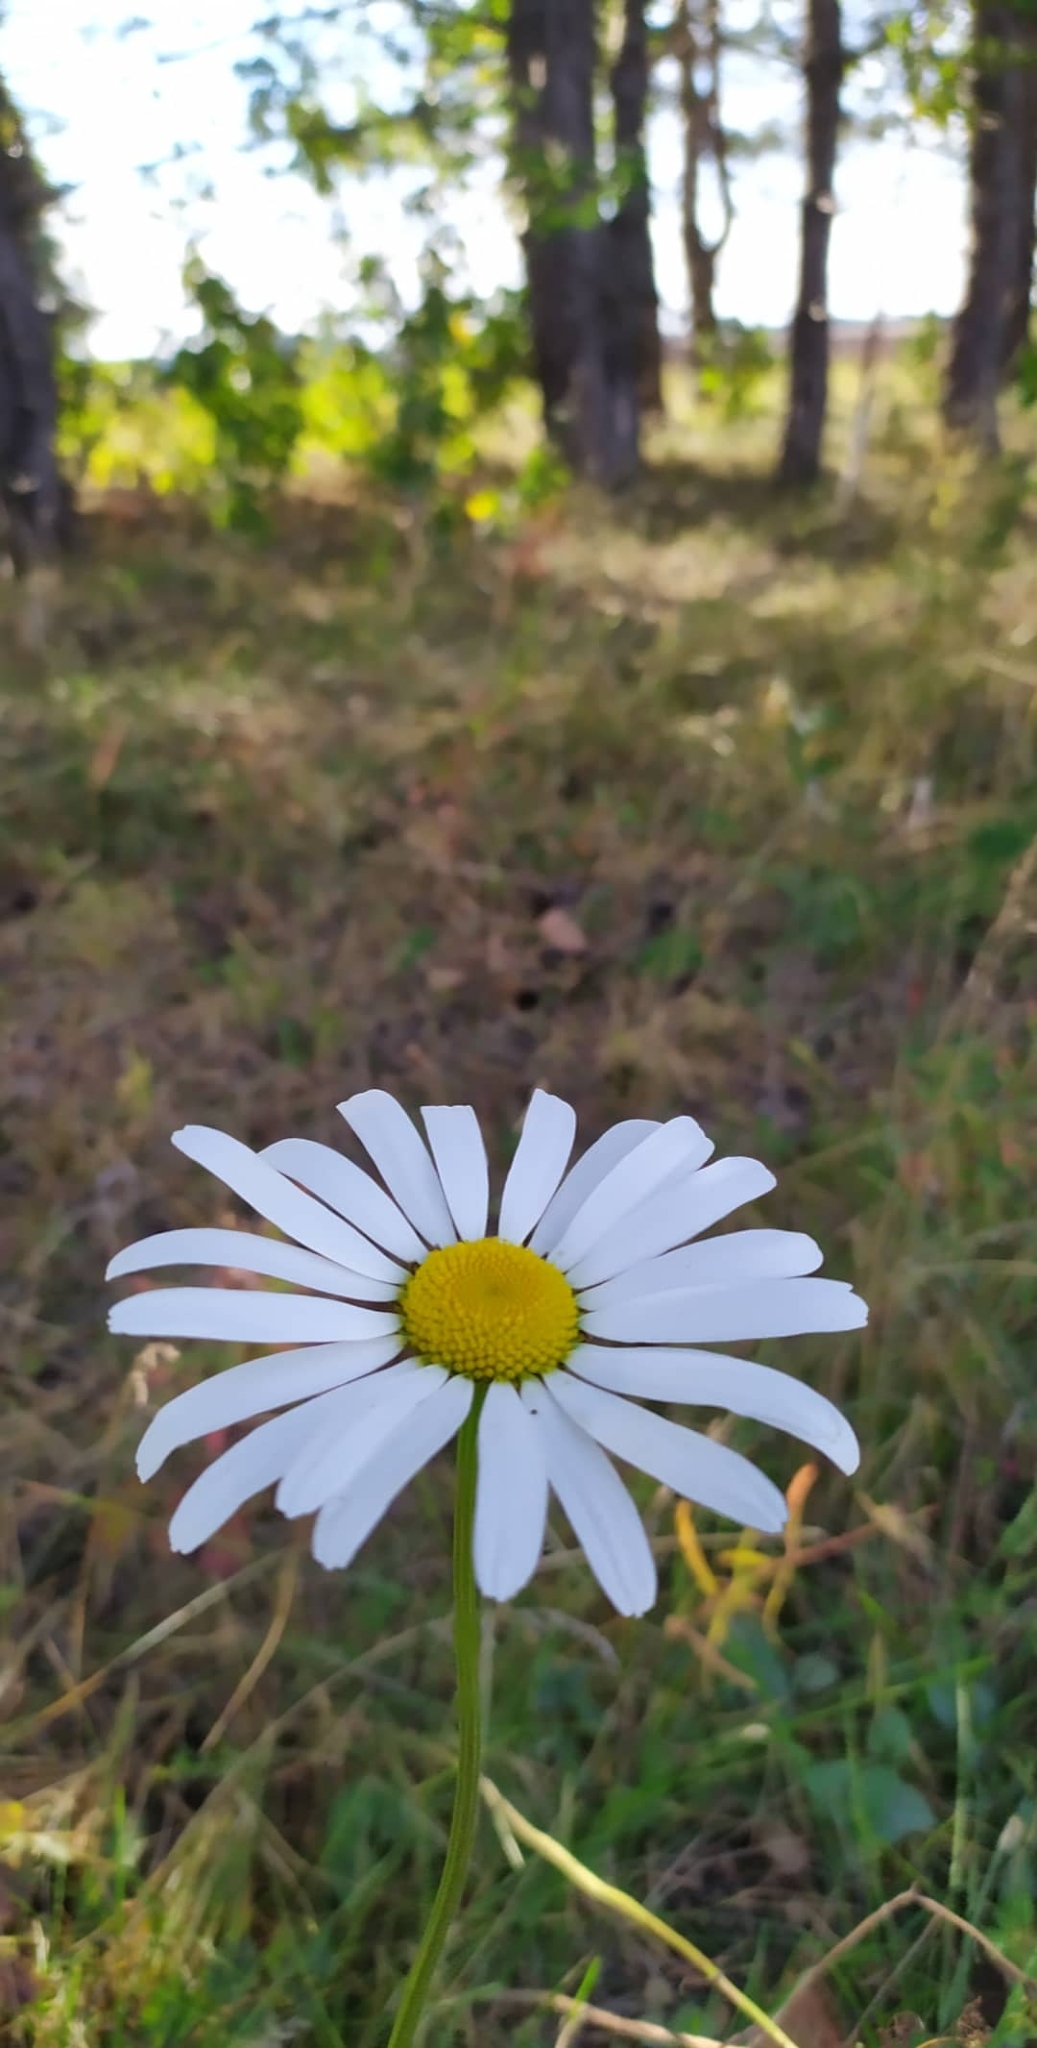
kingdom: Plantae
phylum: Tracheophyta
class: Magnoliopsida
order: Asterales
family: Asteraceae
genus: Leucanthemum
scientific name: Leucanthemum ircutianum
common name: Daisy
